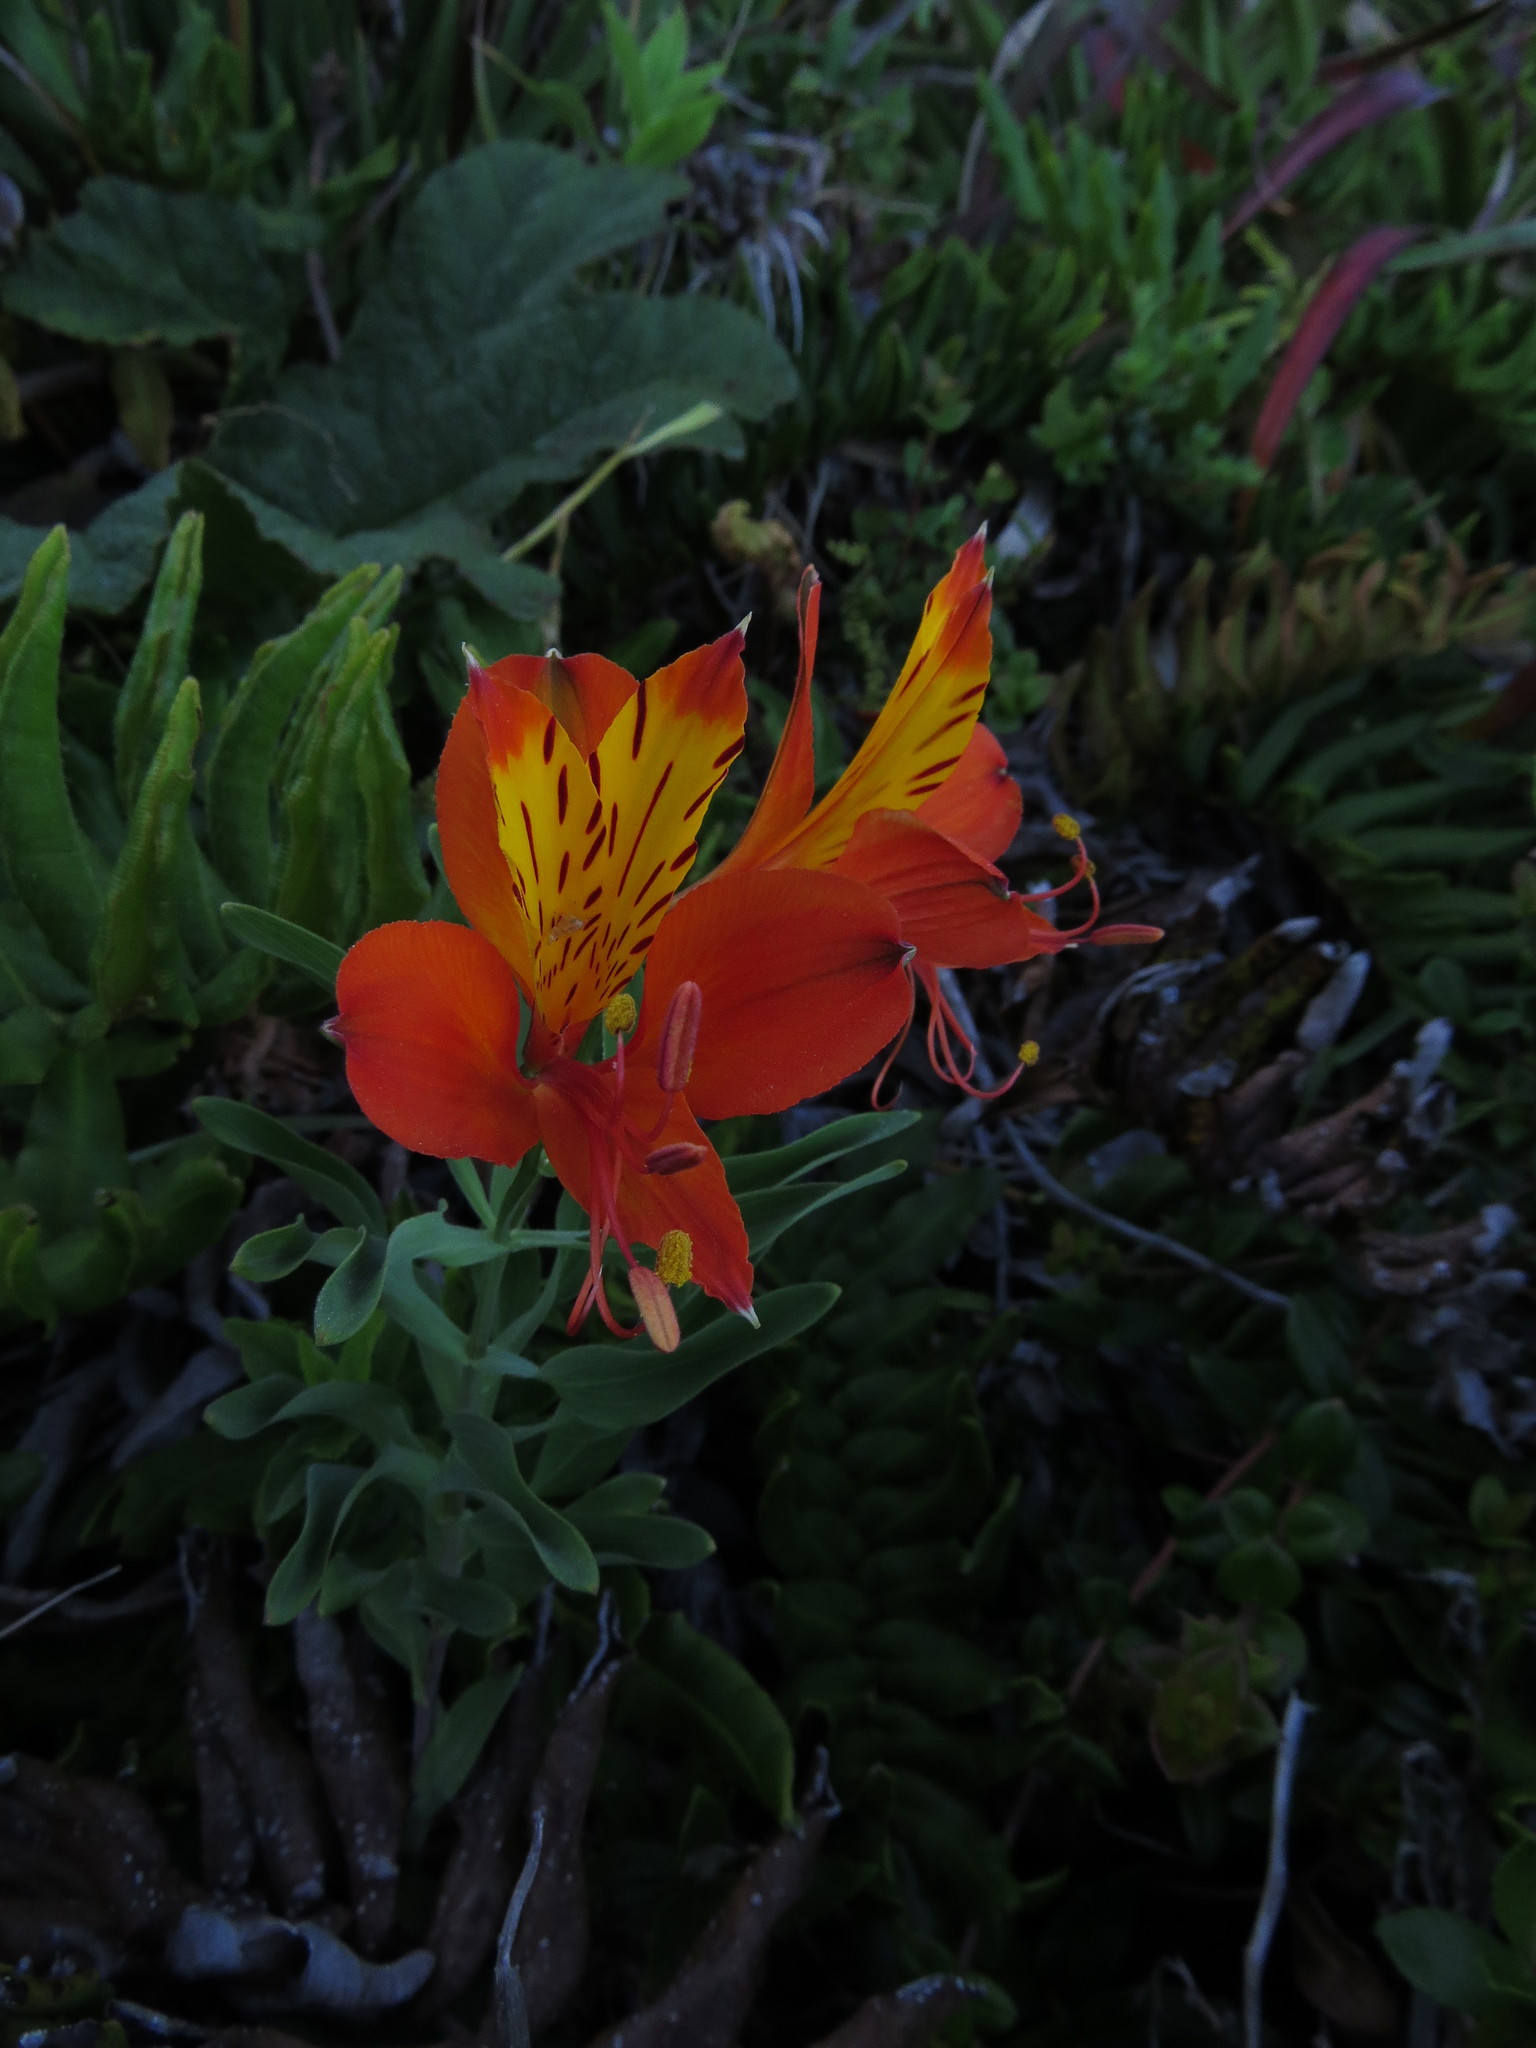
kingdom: Plantae
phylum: Tracheophyta
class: Liliopsida
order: Liliales
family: Alstroemeriaceae
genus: Alstroemeria
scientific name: Alstroemeria aurea
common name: Peruvian lily
